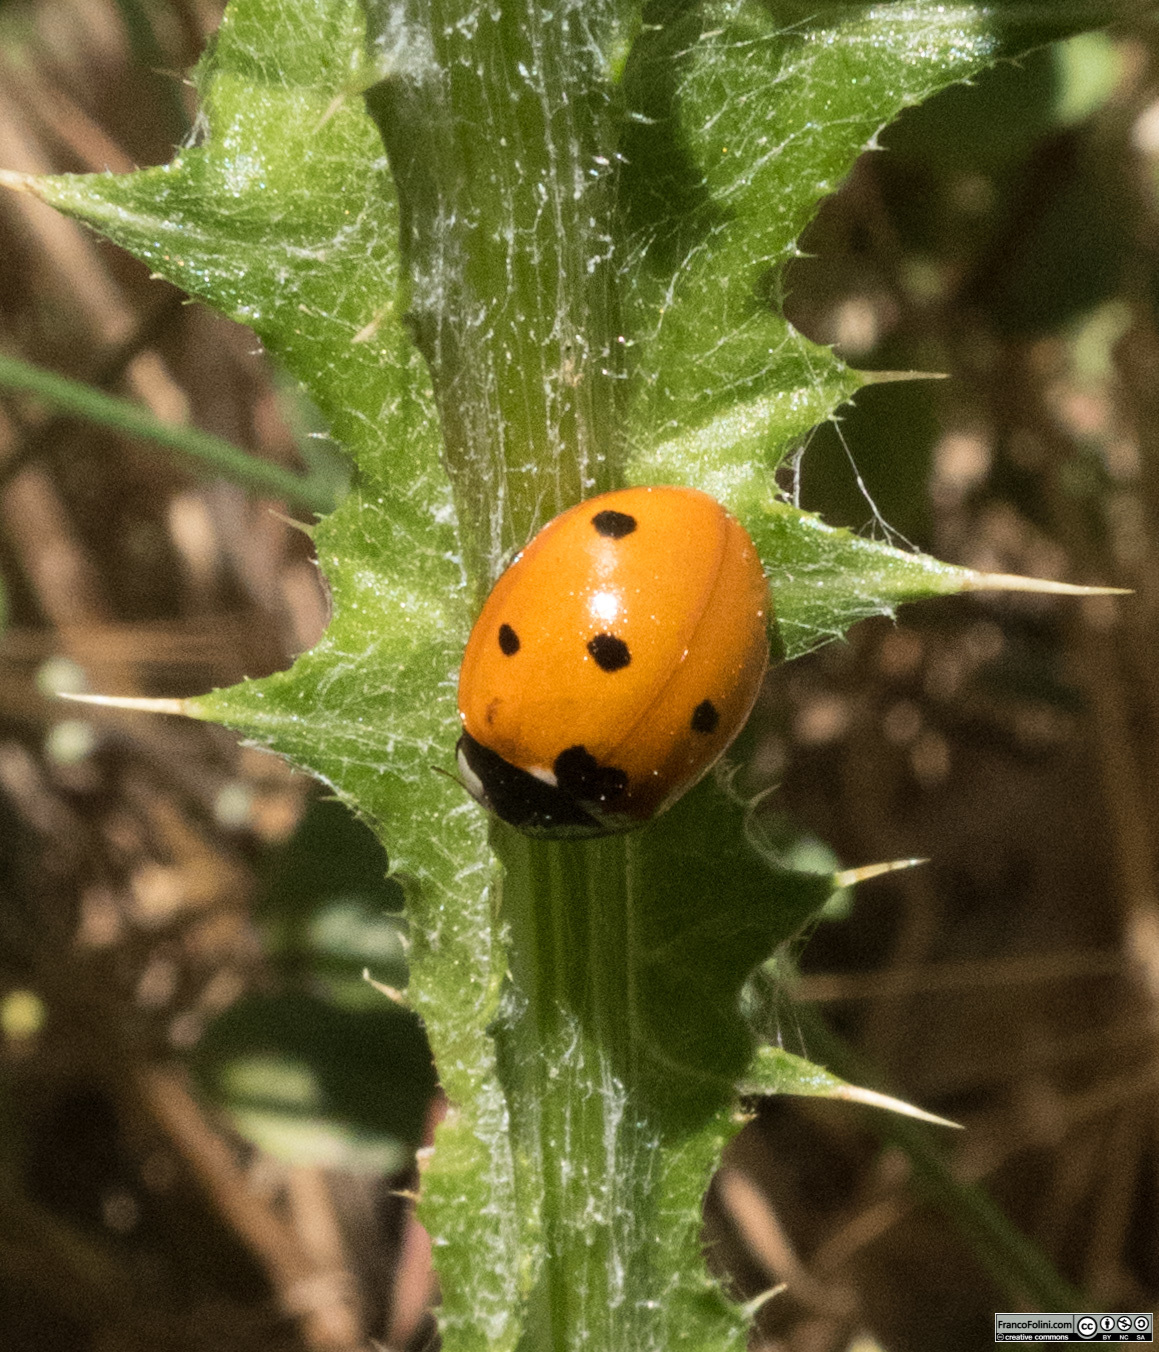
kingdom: Animalia
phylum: Arthropoda
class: Insecta
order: Coleoptera
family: Coccinellidae
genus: Coccinella
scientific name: Coccinella septempunctata
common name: Sevenspotted lady beetle
